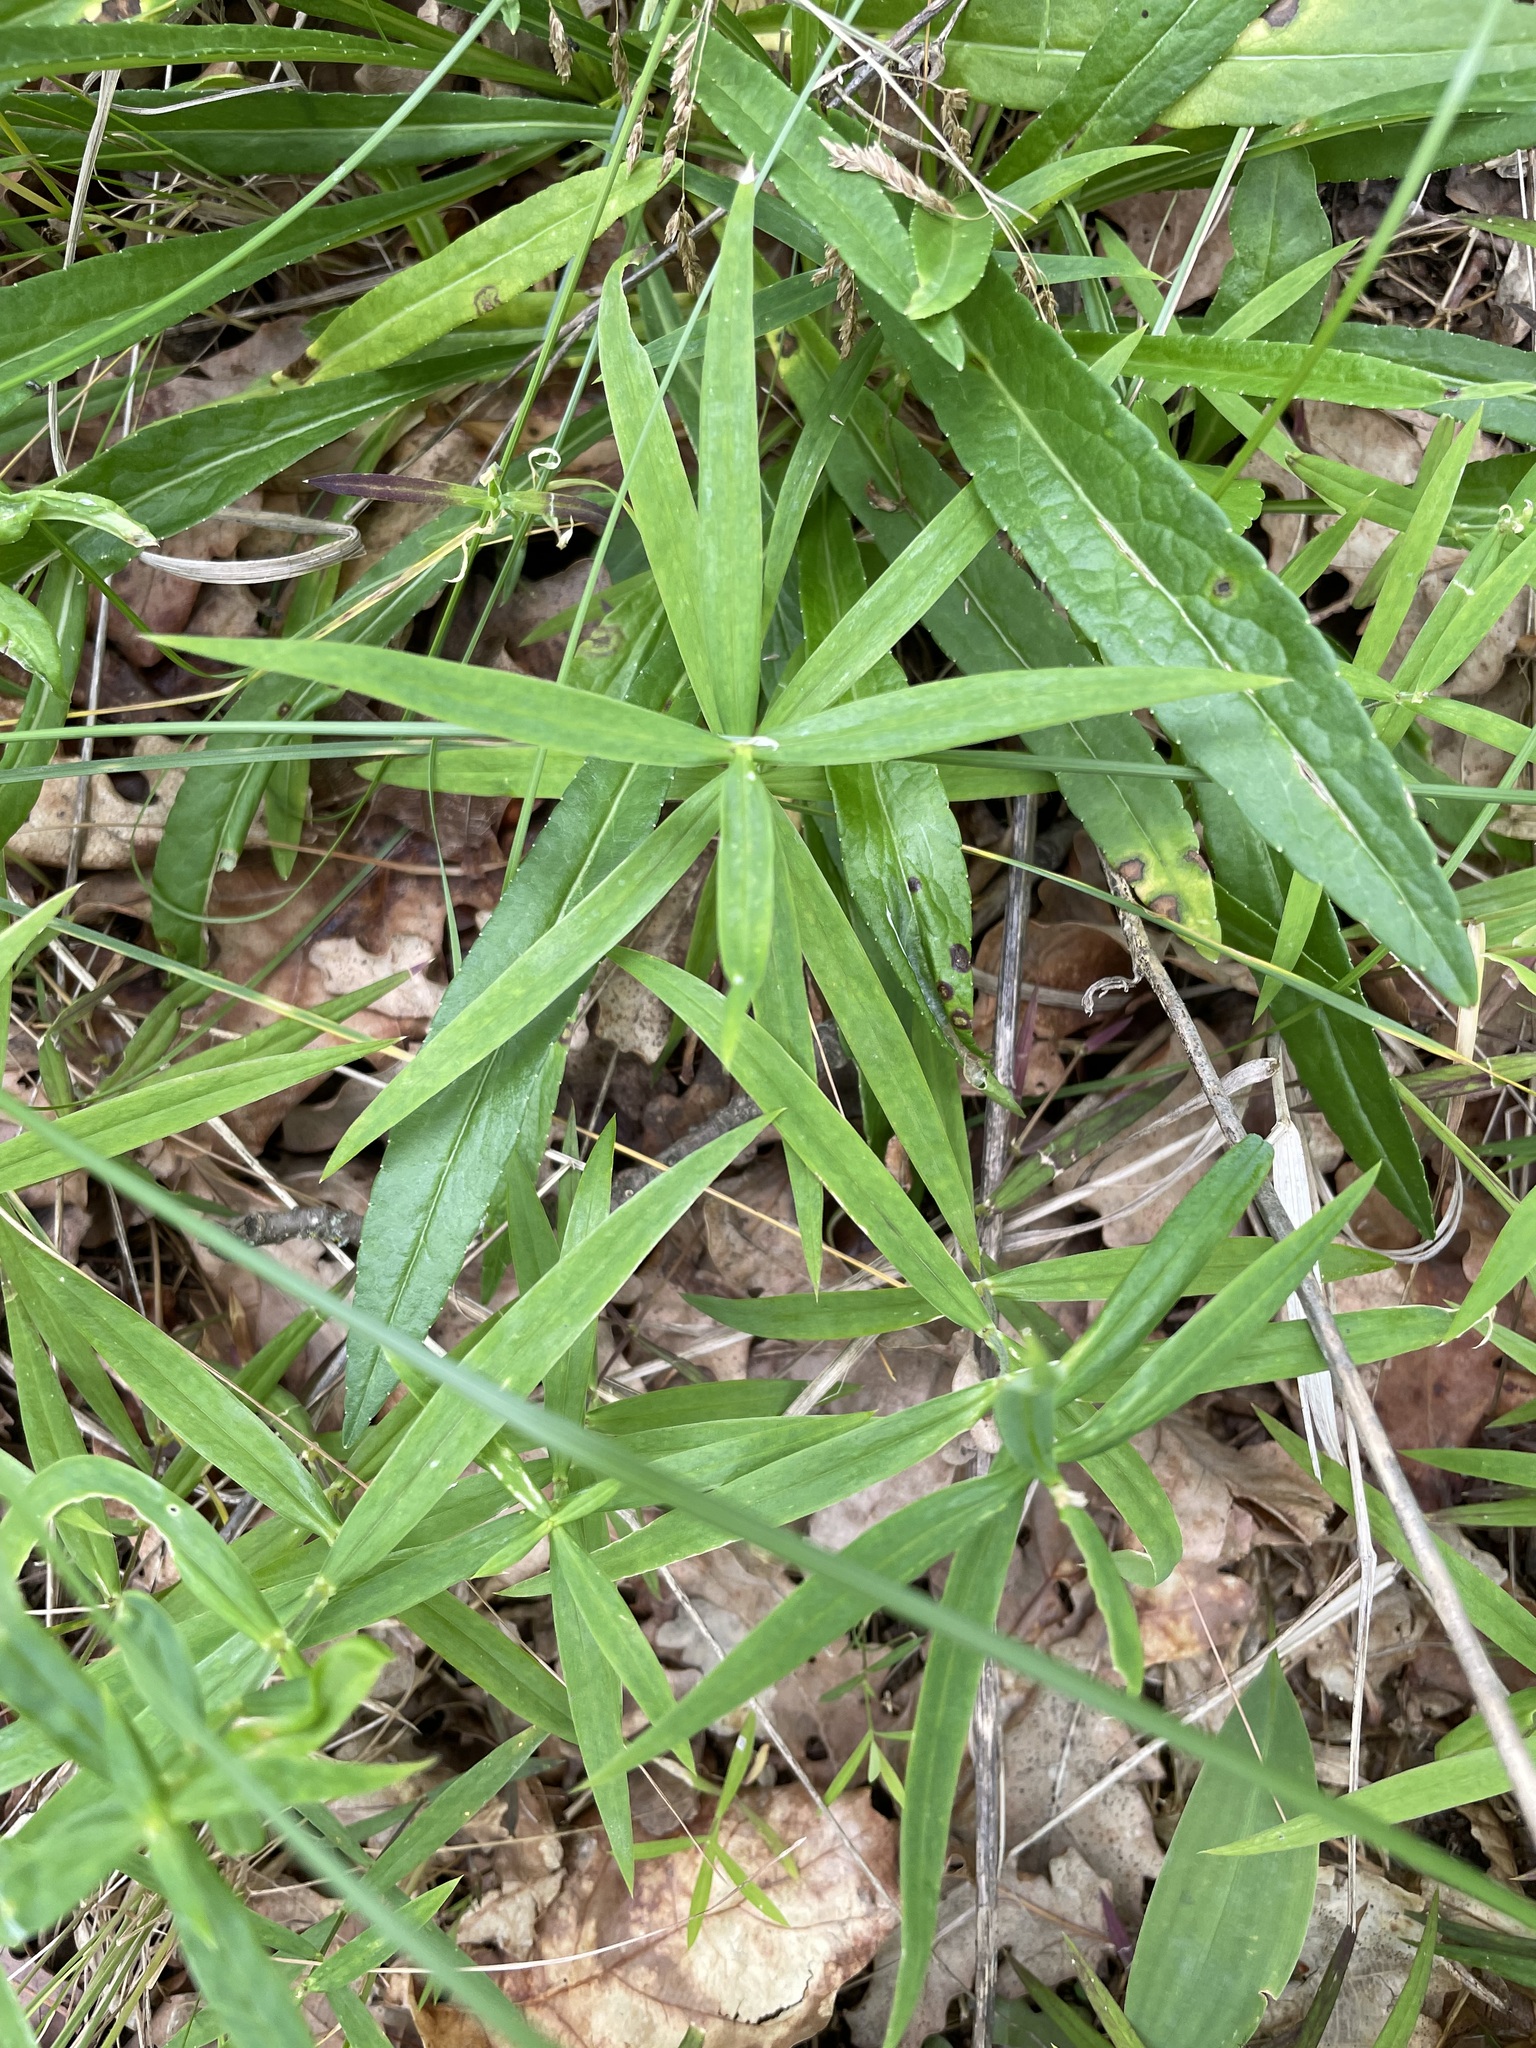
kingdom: Plantae
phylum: Tracheophyta
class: Magnoliopsida
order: Caryophyllales
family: Caryophyllaceae
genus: Rabelera
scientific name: Rabelera holostea
